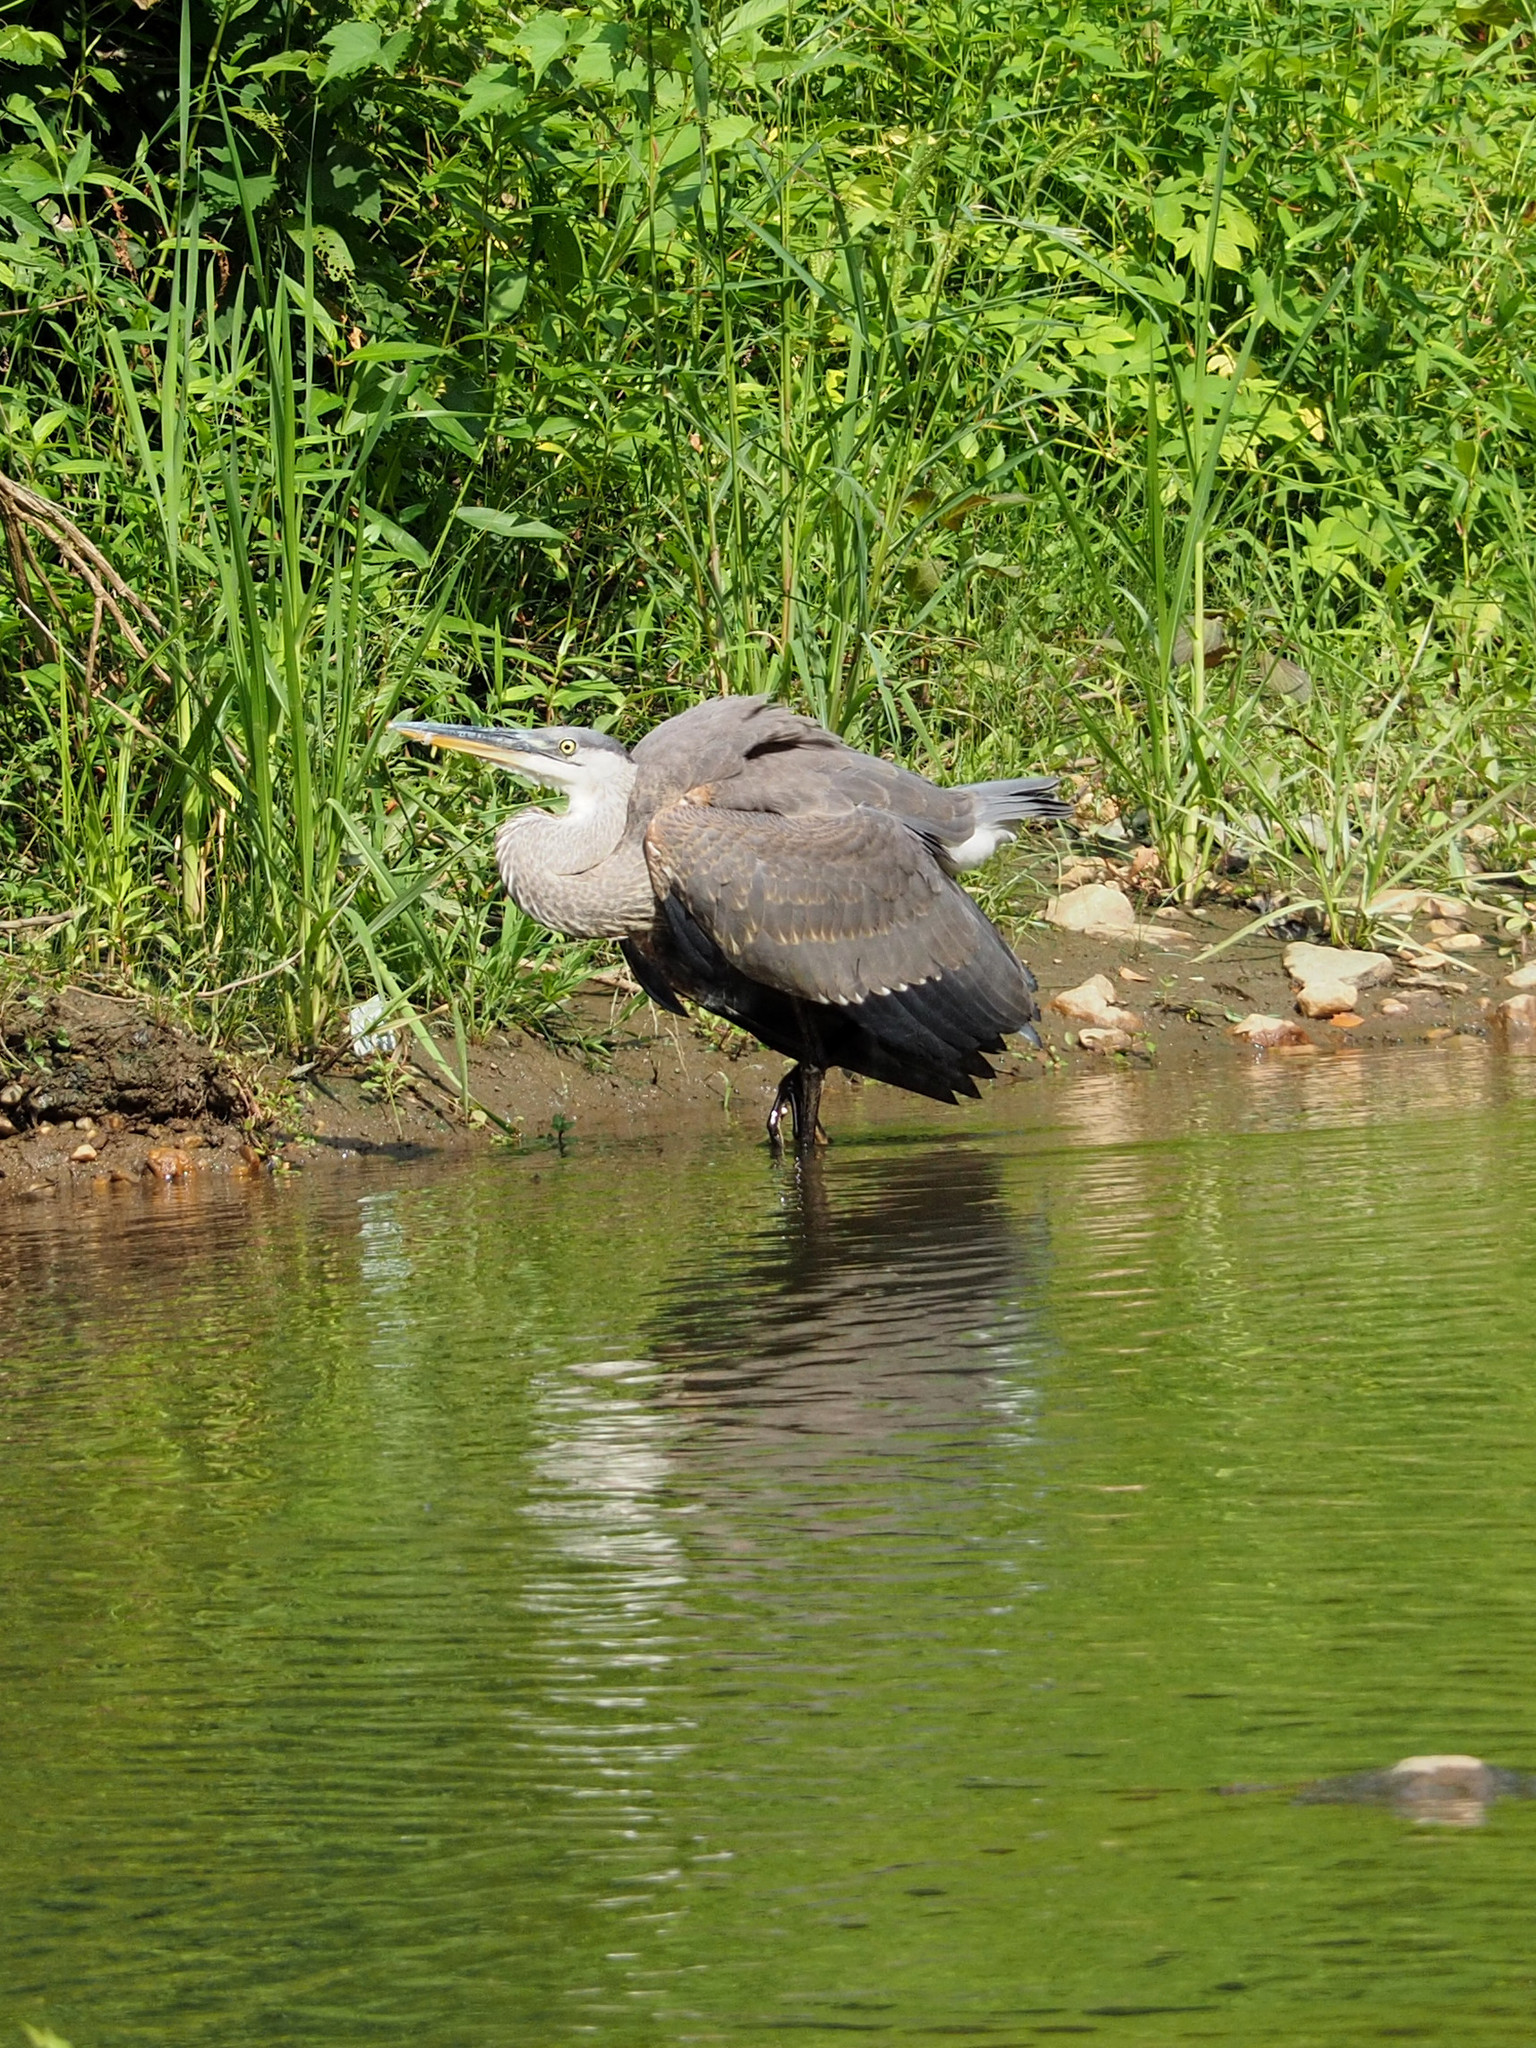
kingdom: Animalia
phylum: Chordata
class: Aves
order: Pelecaniformes
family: Ardeidae
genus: Ardea
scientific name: Ardea herodias
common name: Great blue heron
